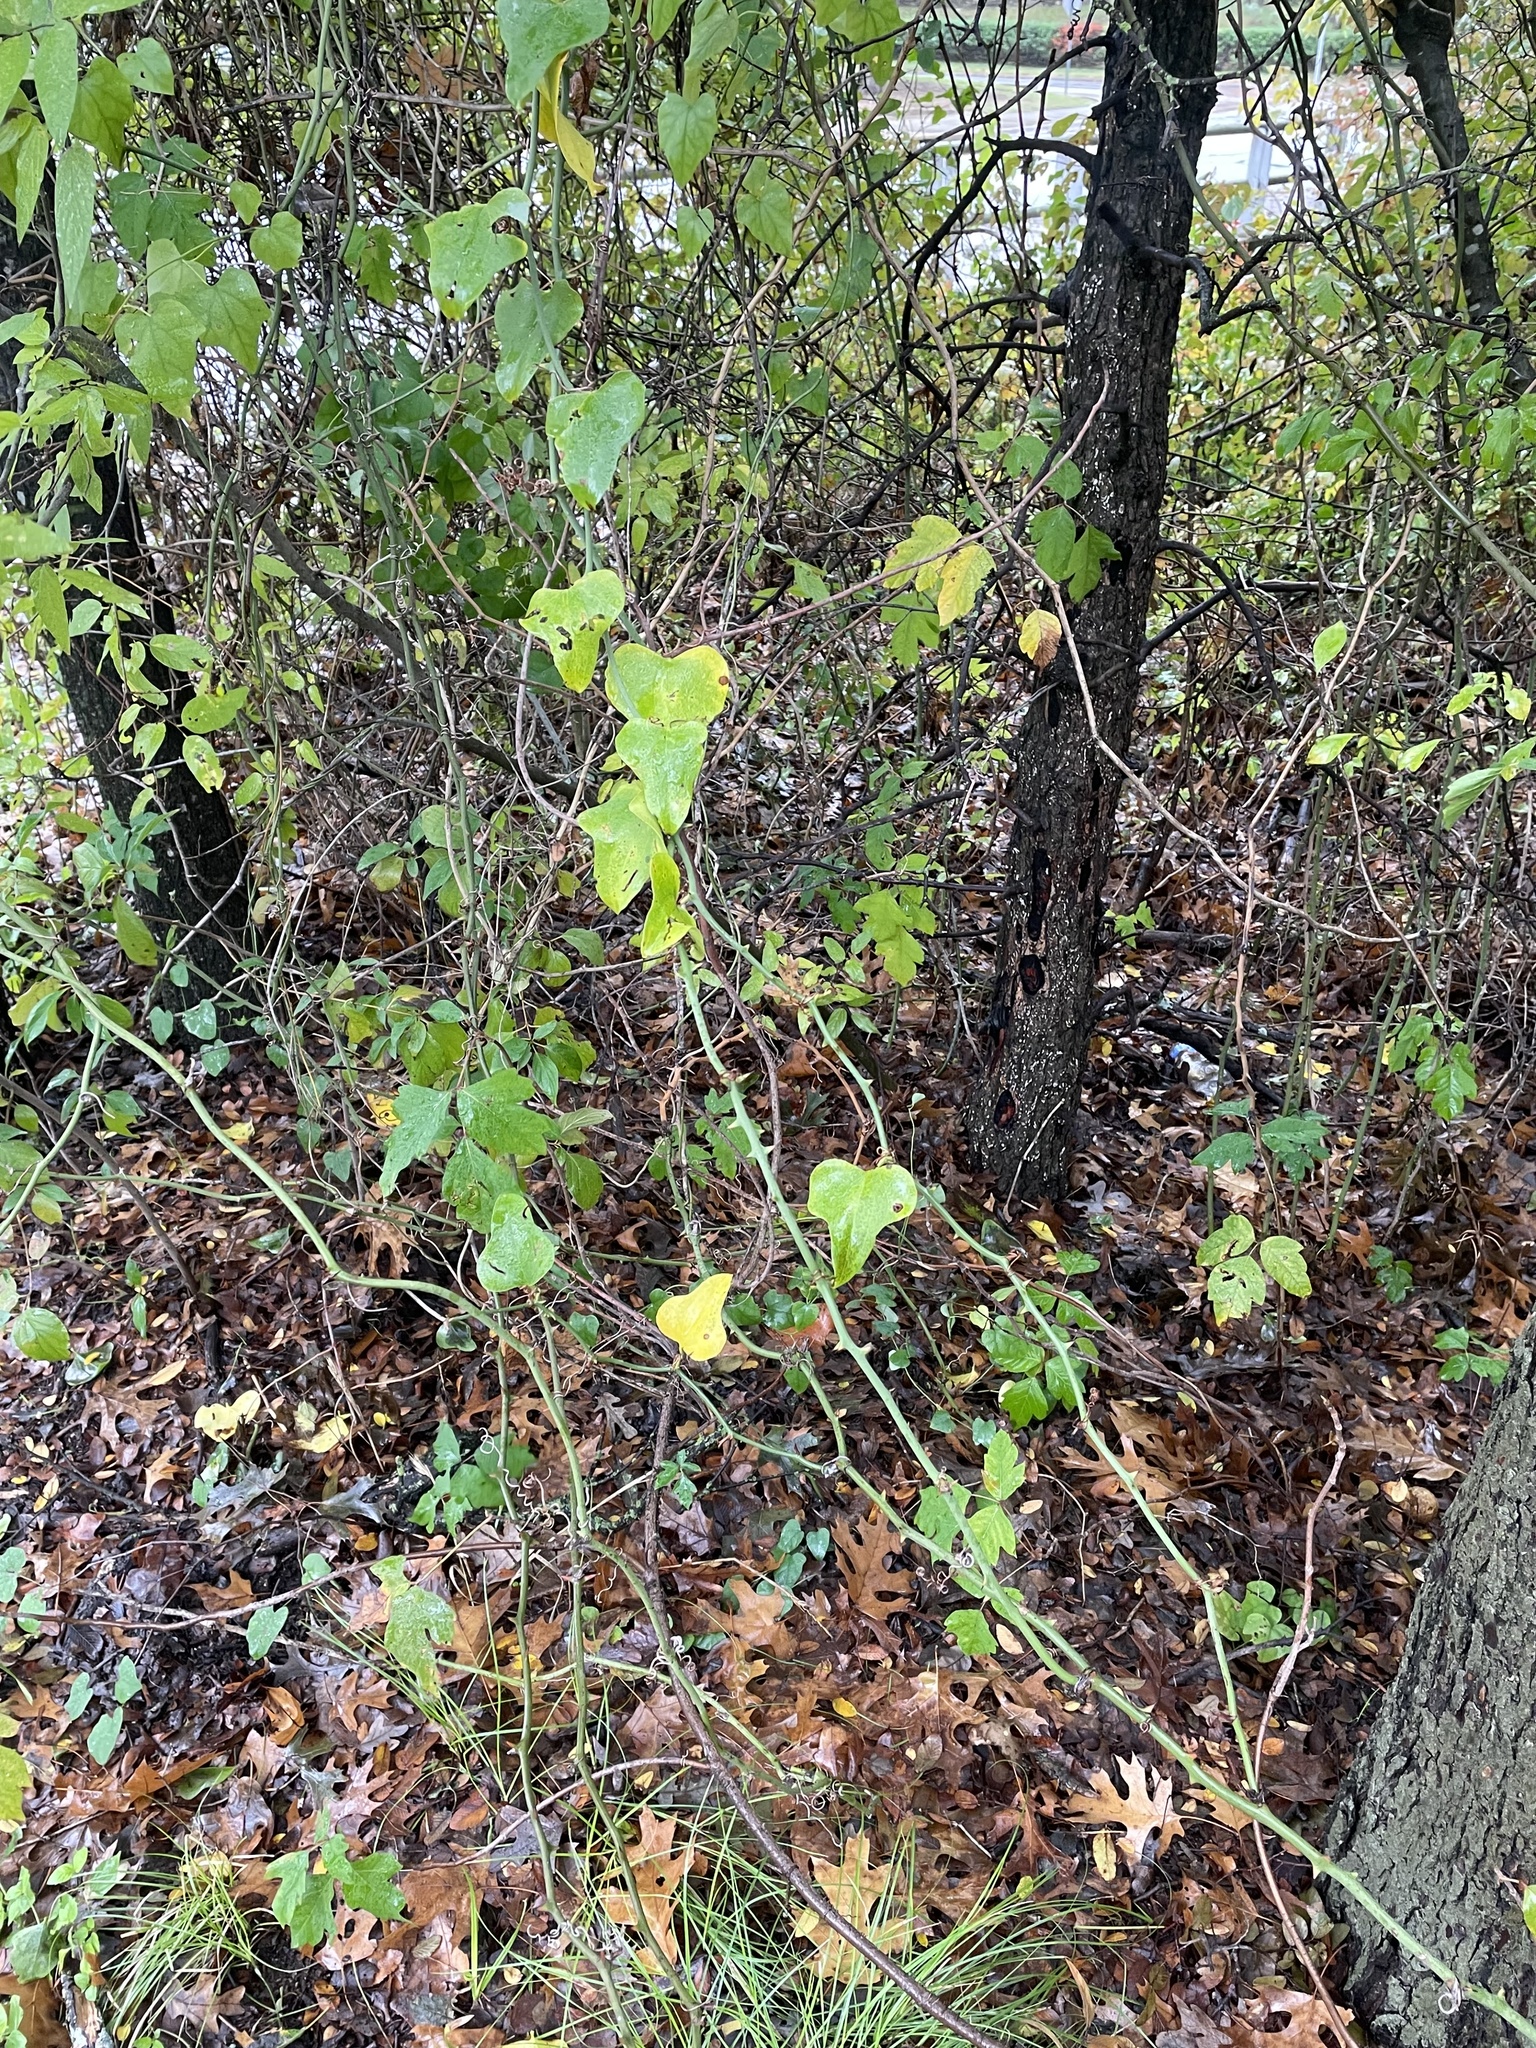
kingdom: Plantae
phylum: Tracheophyta
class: Liliopsida
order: Liliales
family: Smilacaceae
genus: Smilax
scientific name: Smilax bona-nox
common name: Catbrier
